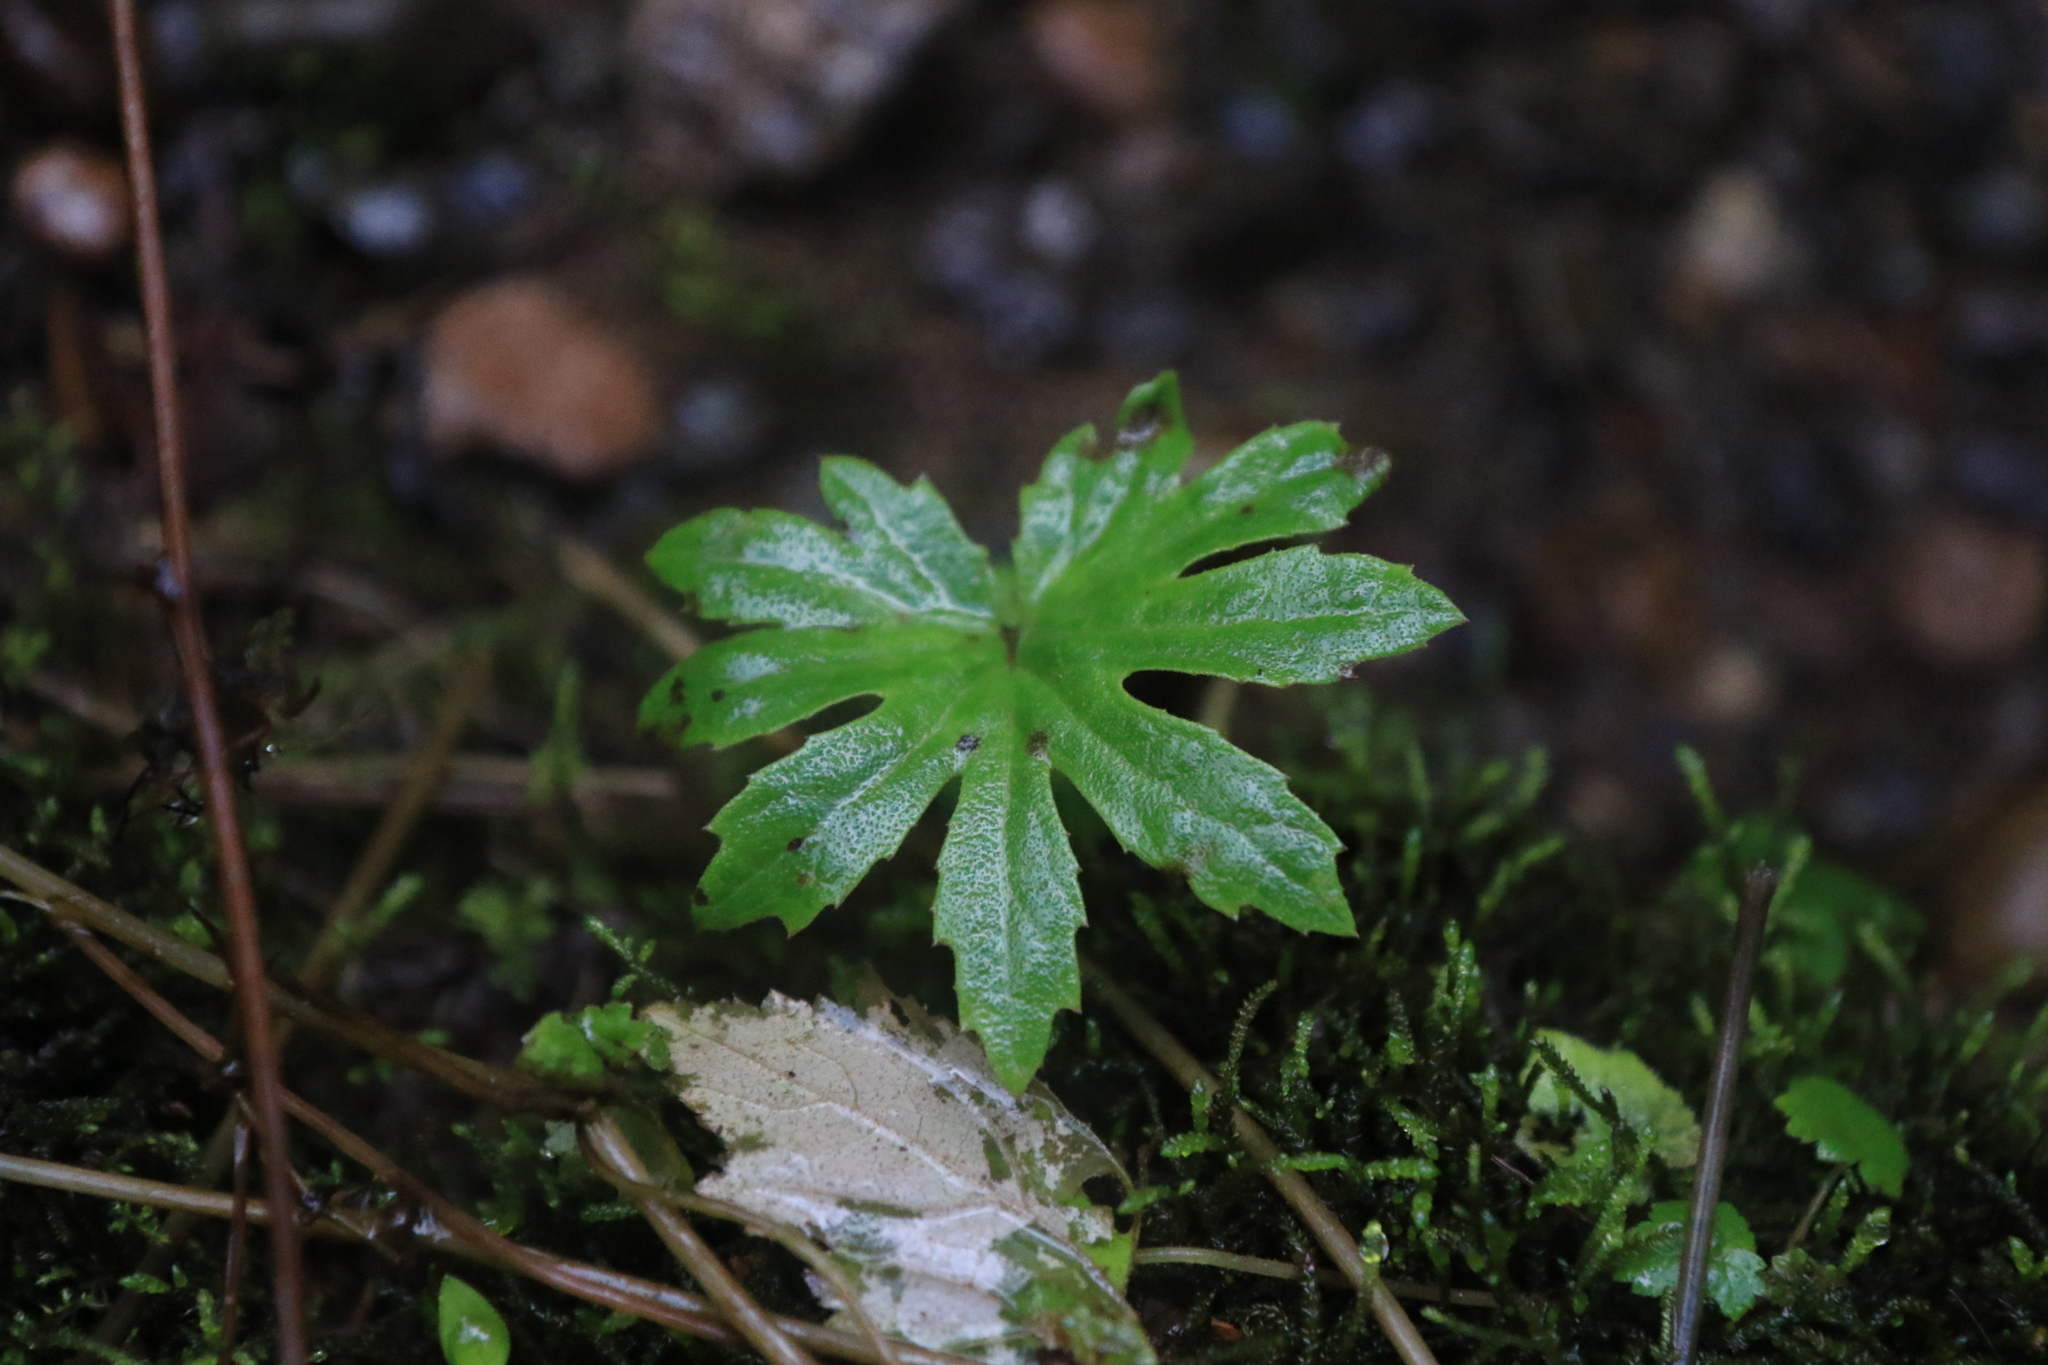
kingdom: Plantae
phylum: Tracheophyta
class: Magnoliopsida
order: Asterales
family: Asteraceae
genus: Petasites
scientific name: Petasites frigidus
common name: Arctic butterbur
